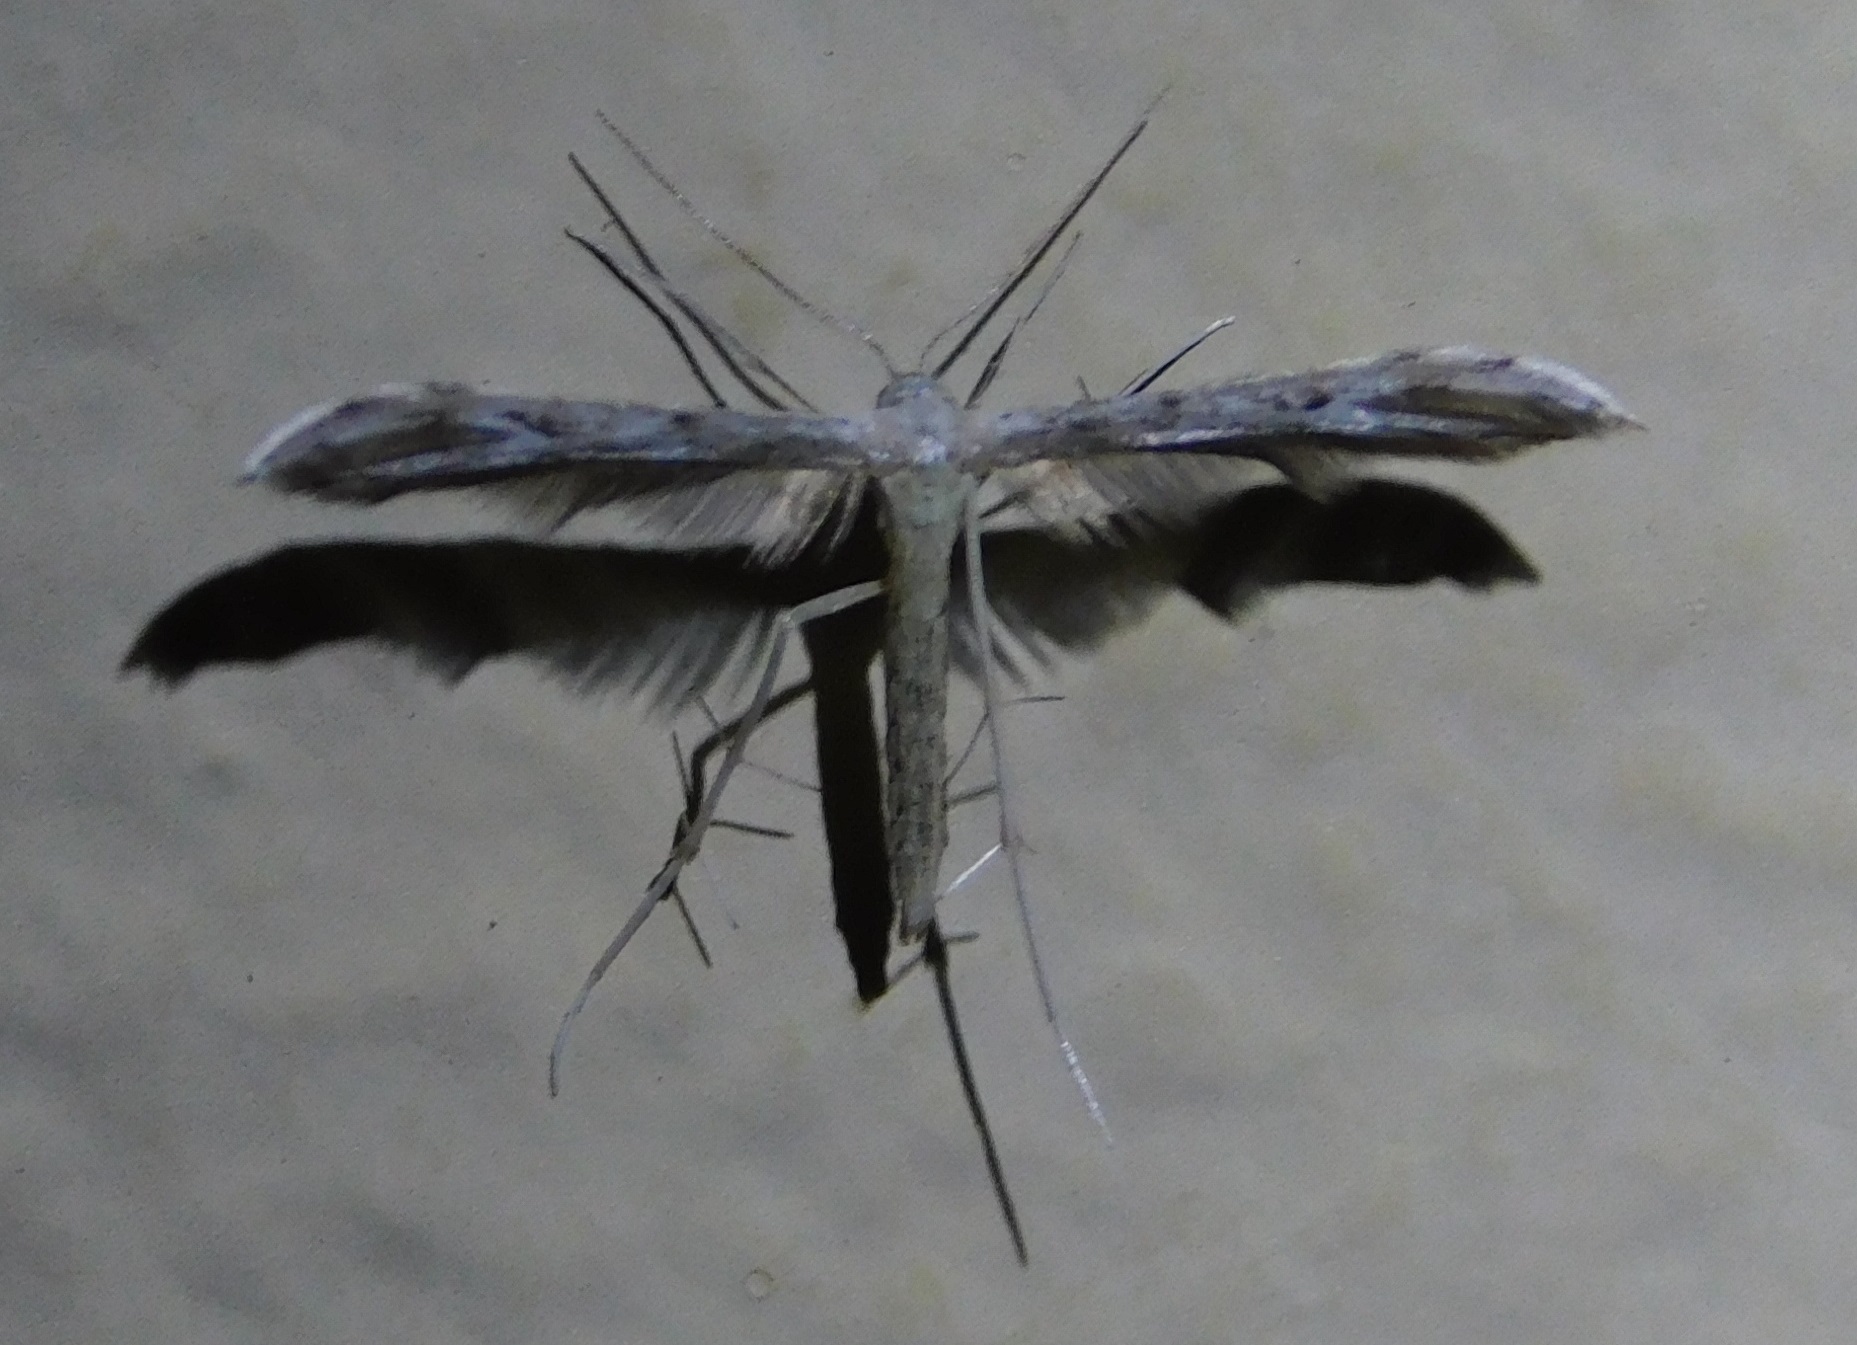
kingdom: Animalia
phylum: Arthropoda
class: Insecta
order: Lepidoptera
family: Pterophoridae
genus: Pselnophorus
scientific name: Pselnophorus belfragei
